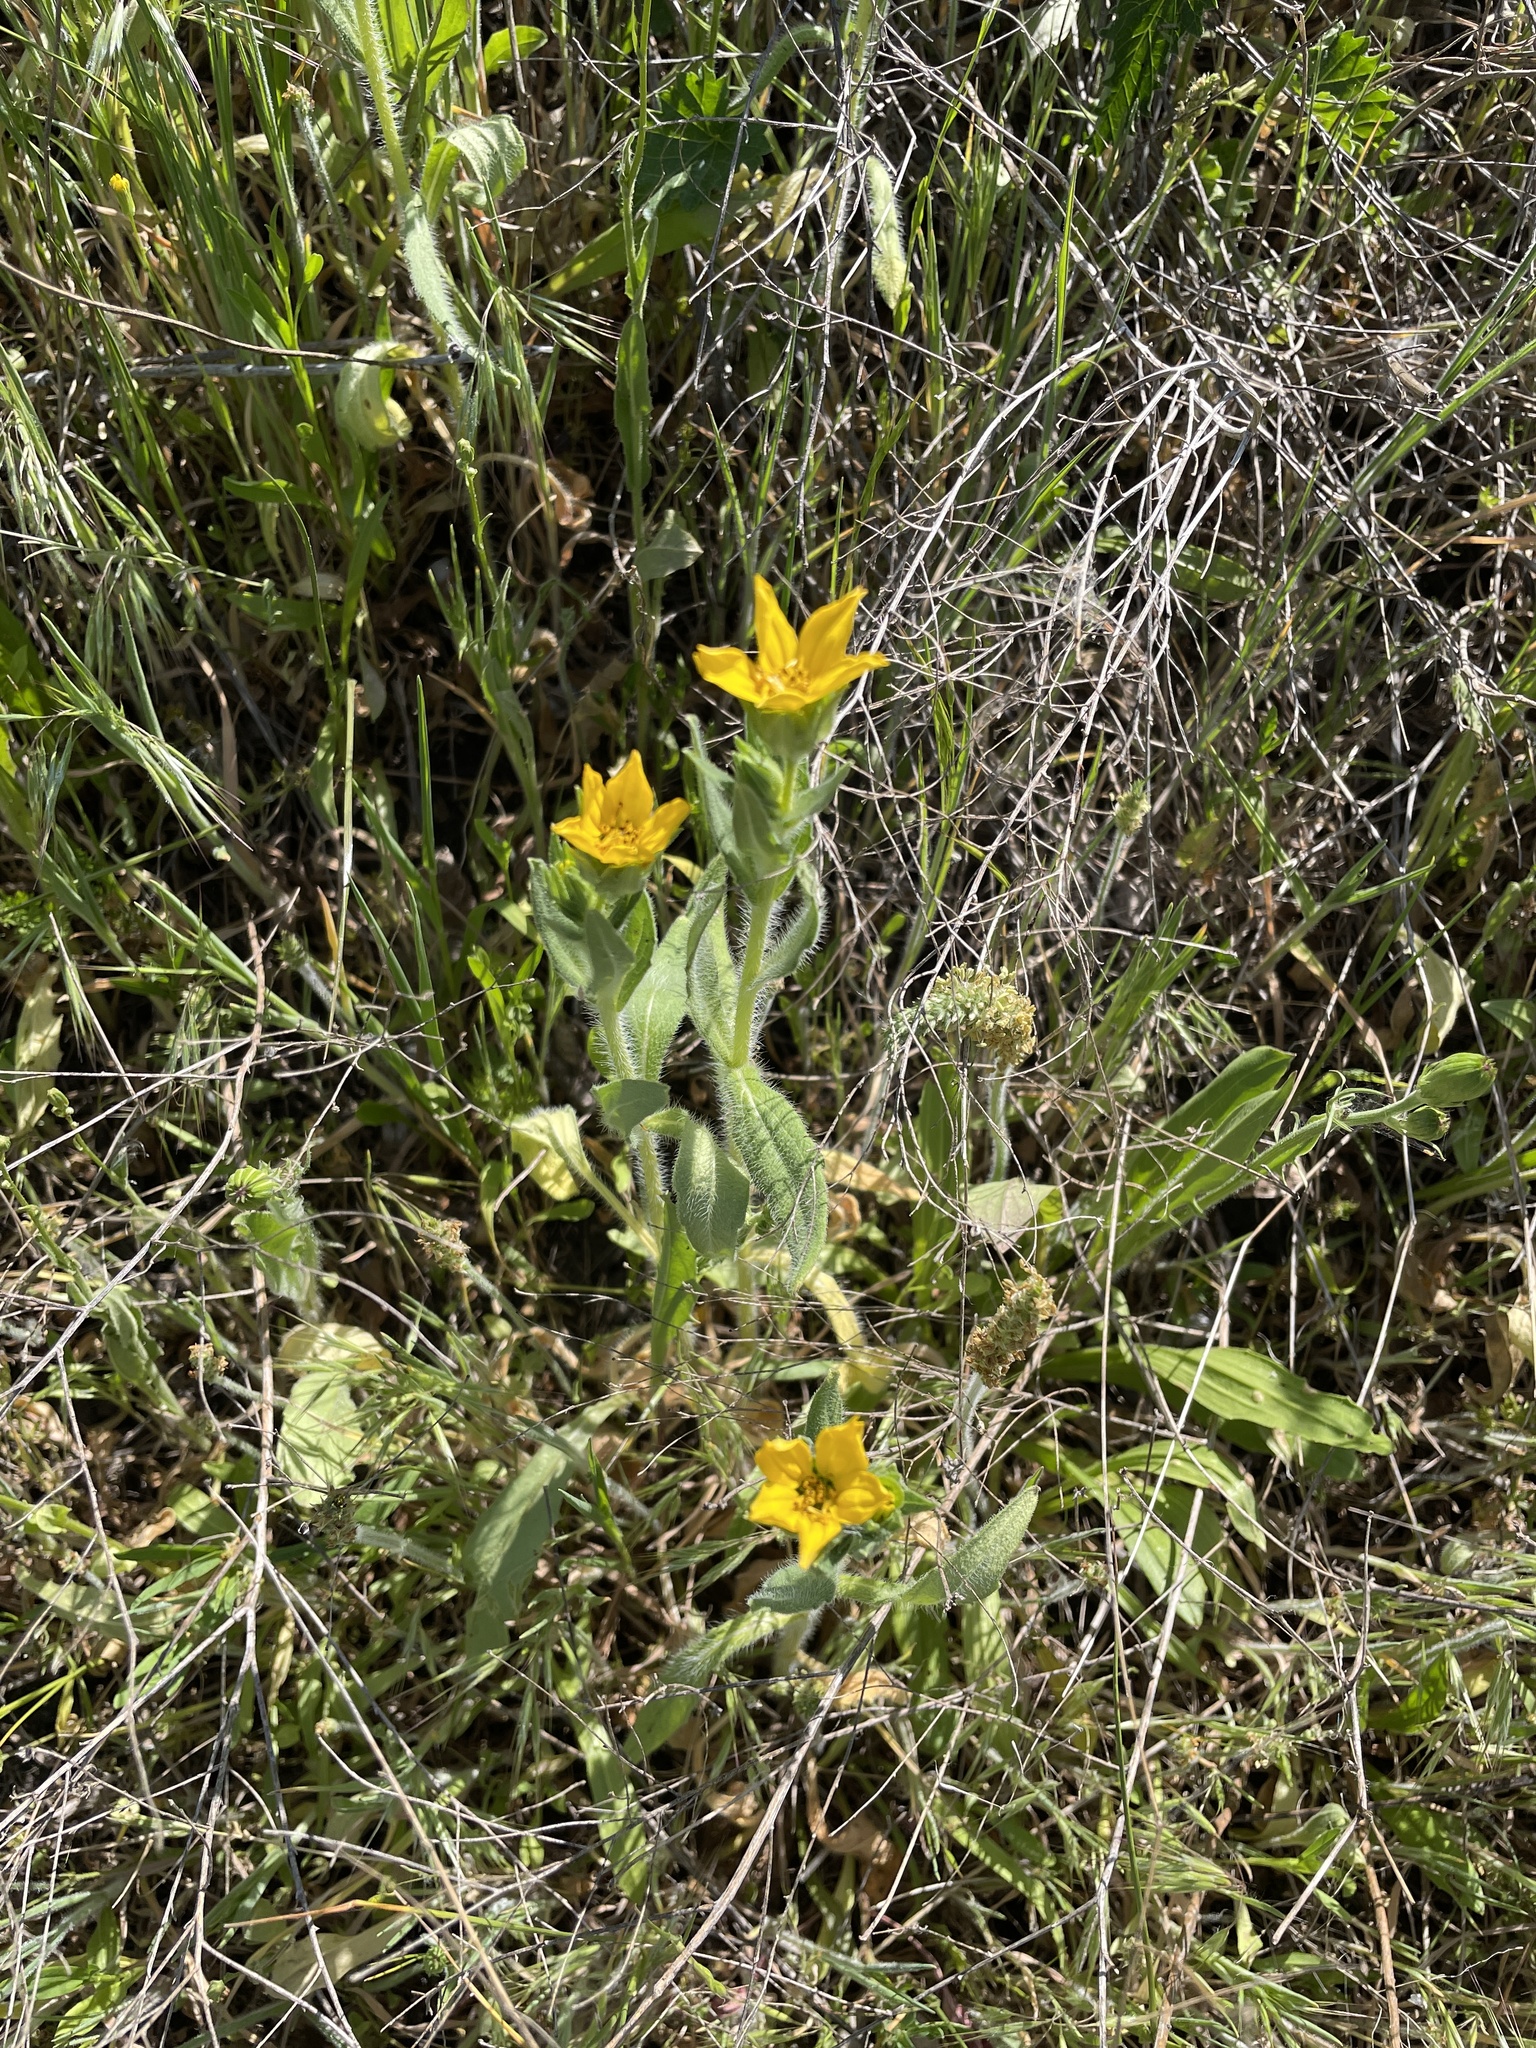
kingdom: Plantae
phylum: Tracheophyta
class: Magnoliopsida
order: Asterales
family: Asteraceae
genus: Lindheimera
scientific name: Lindheimera texana
